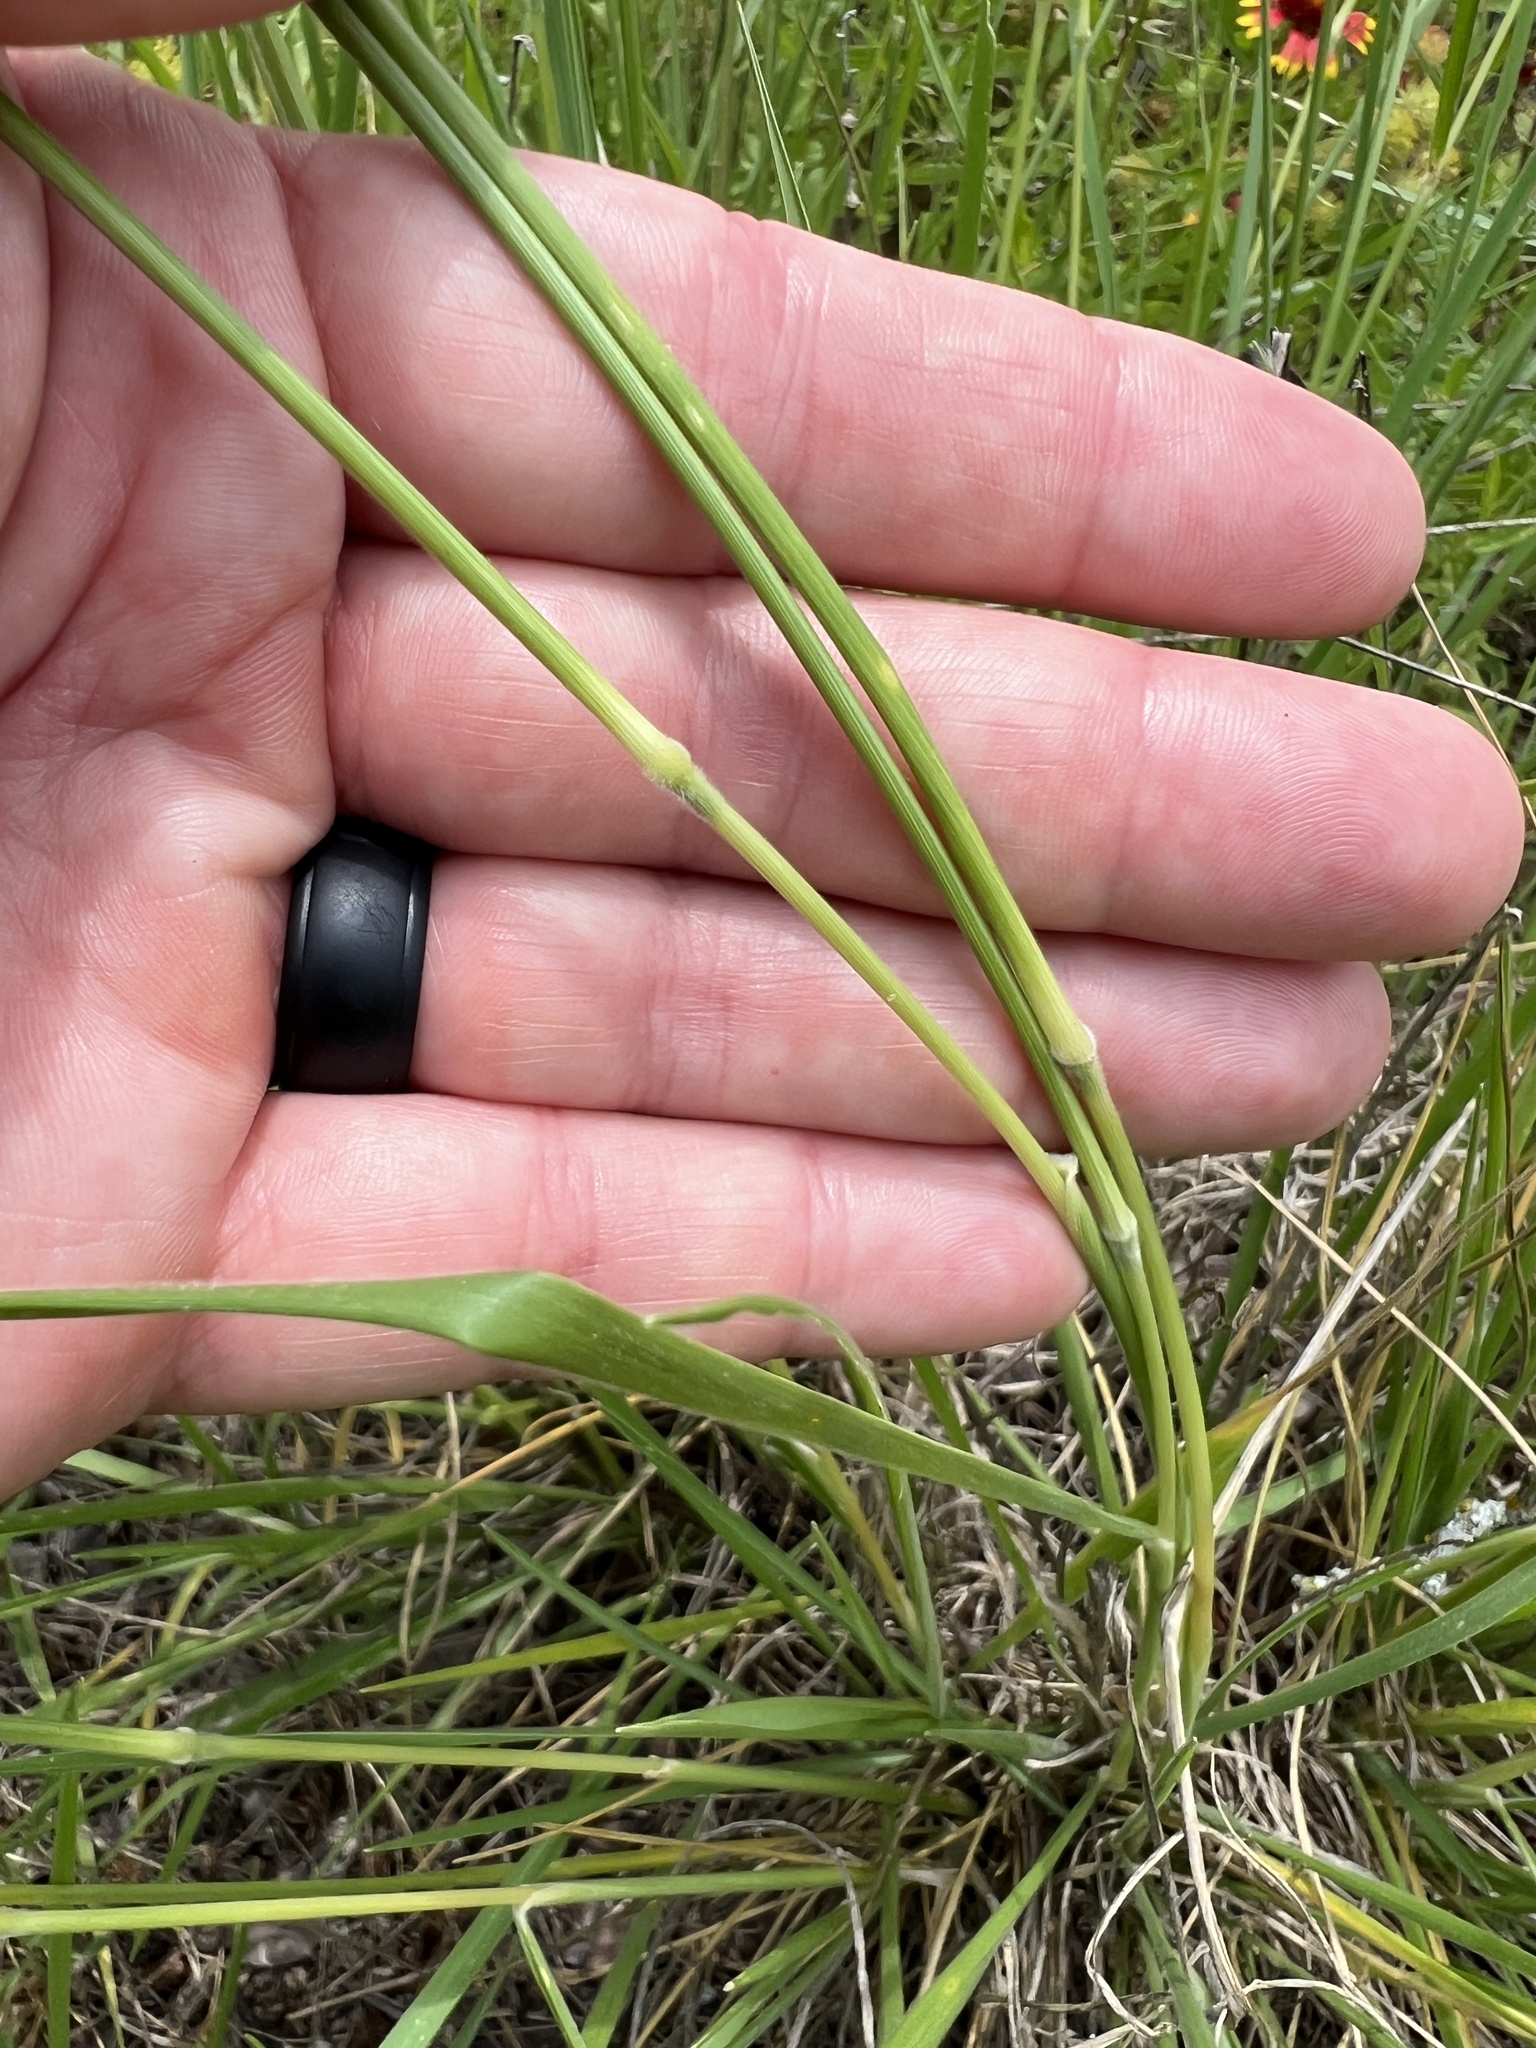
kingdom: Plantae
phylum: Tracheophyta
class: Liliopsida
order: Poales
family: Poaceae
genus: Eriochloa
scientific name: Eriochloa sericea
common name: Texas cup grass
